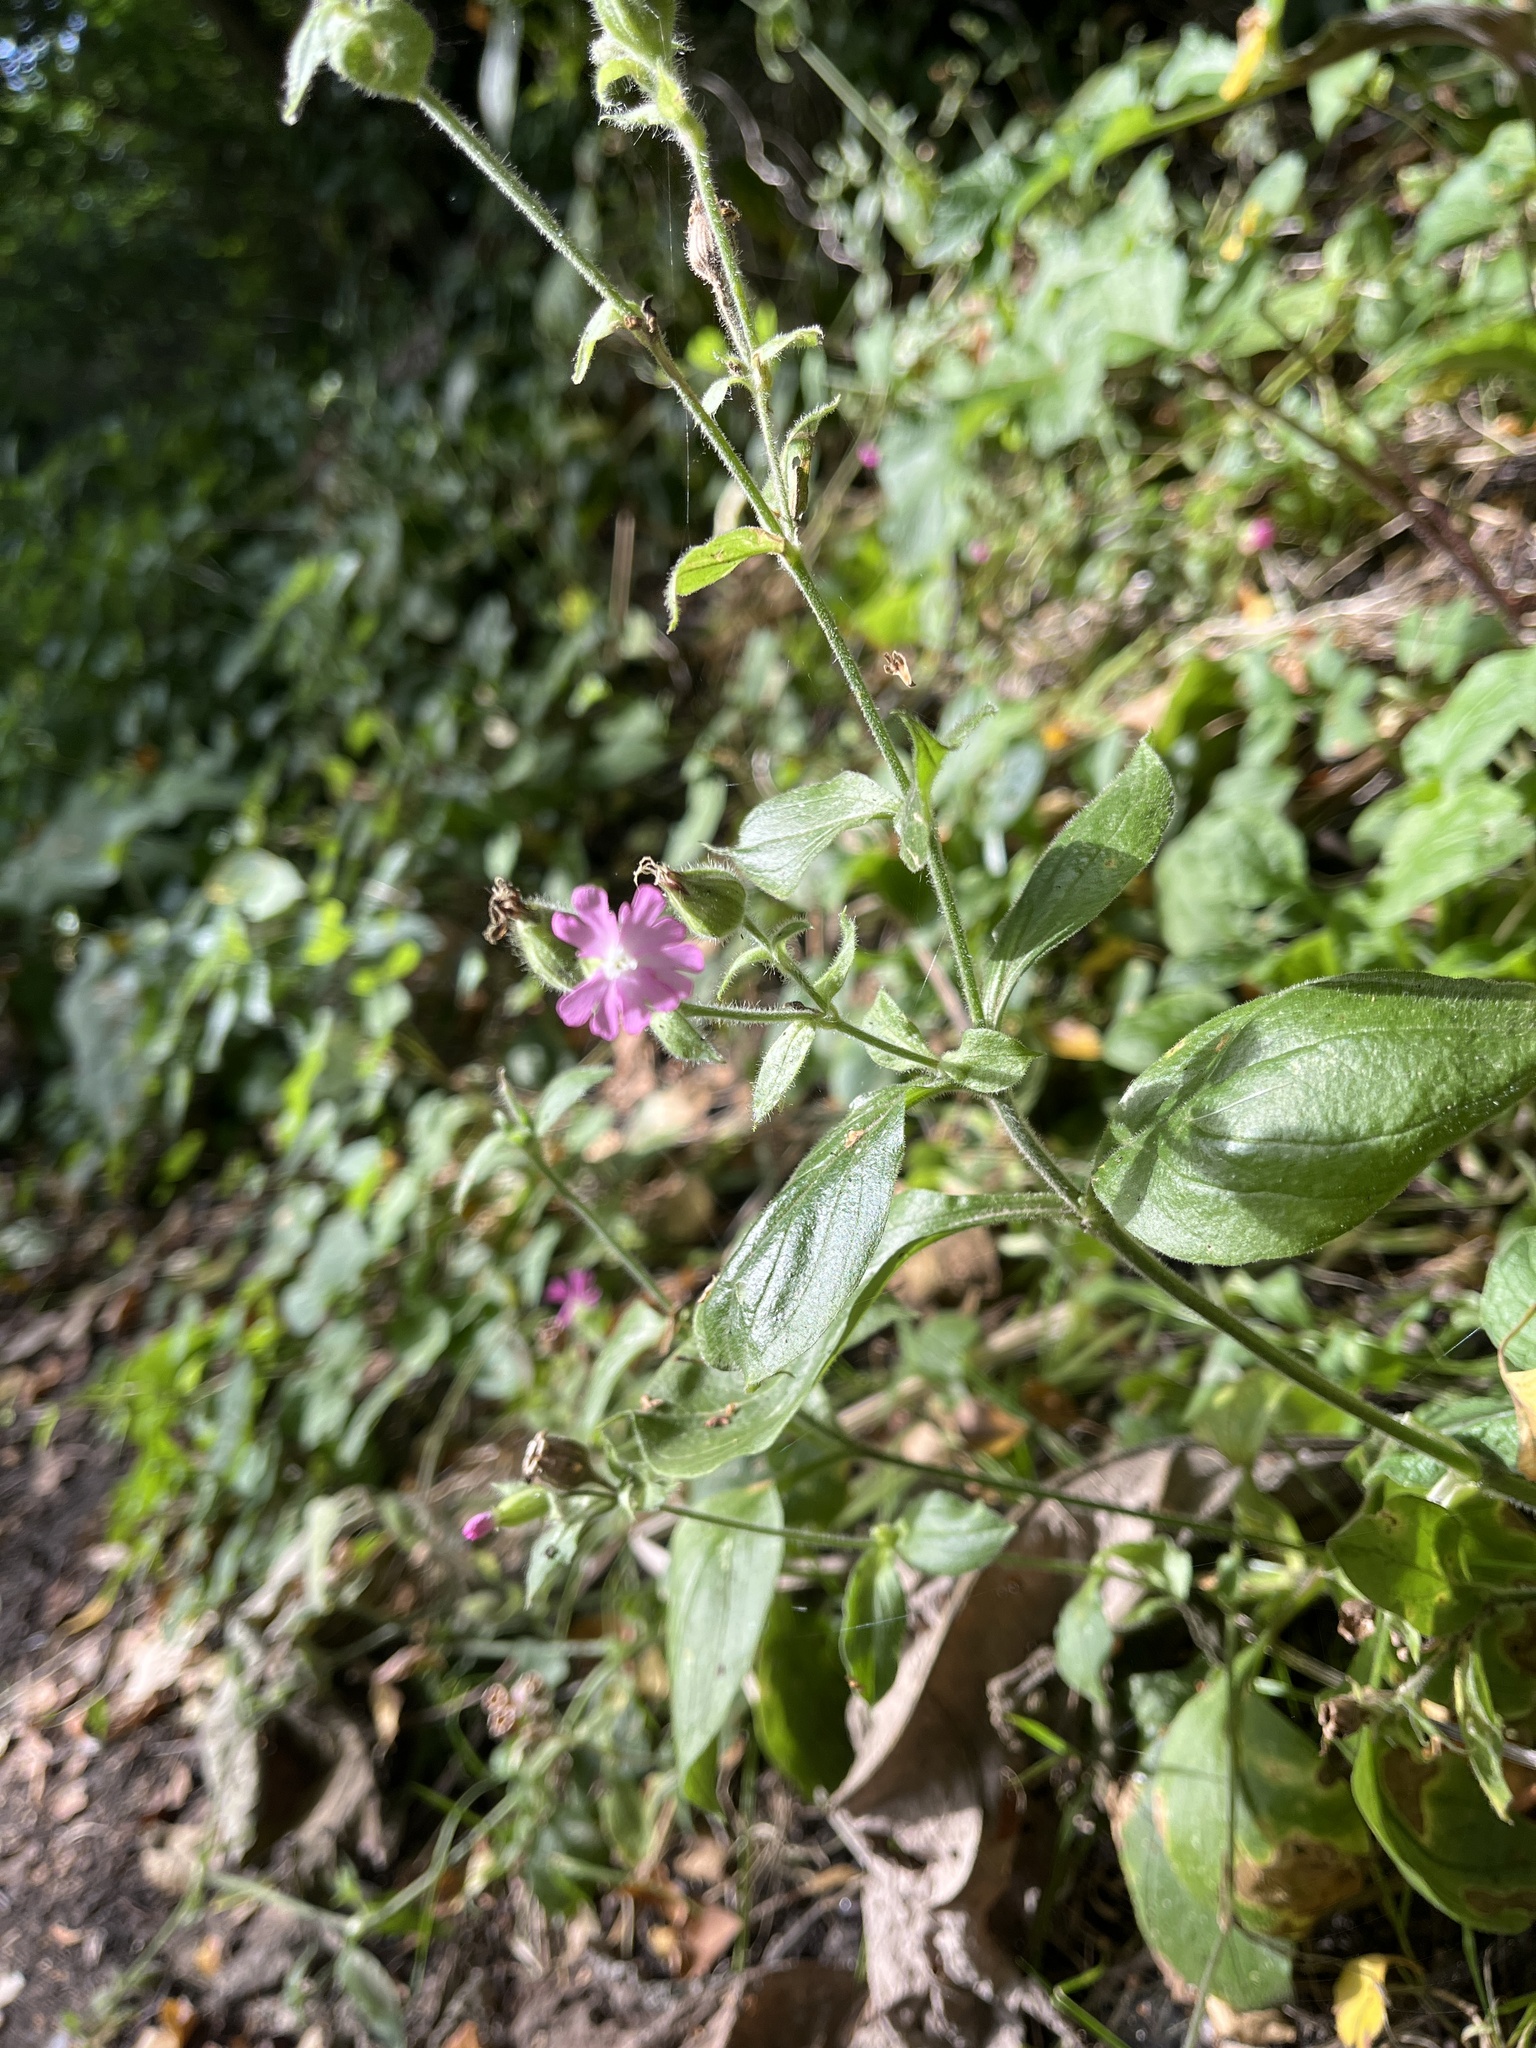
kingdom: Plantae
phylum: Tracheophyta
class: Magnoliopsida
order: Caryophyllales
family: Caryophyllaceae
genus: Silene
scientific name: Silene dioica
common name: Red campion
